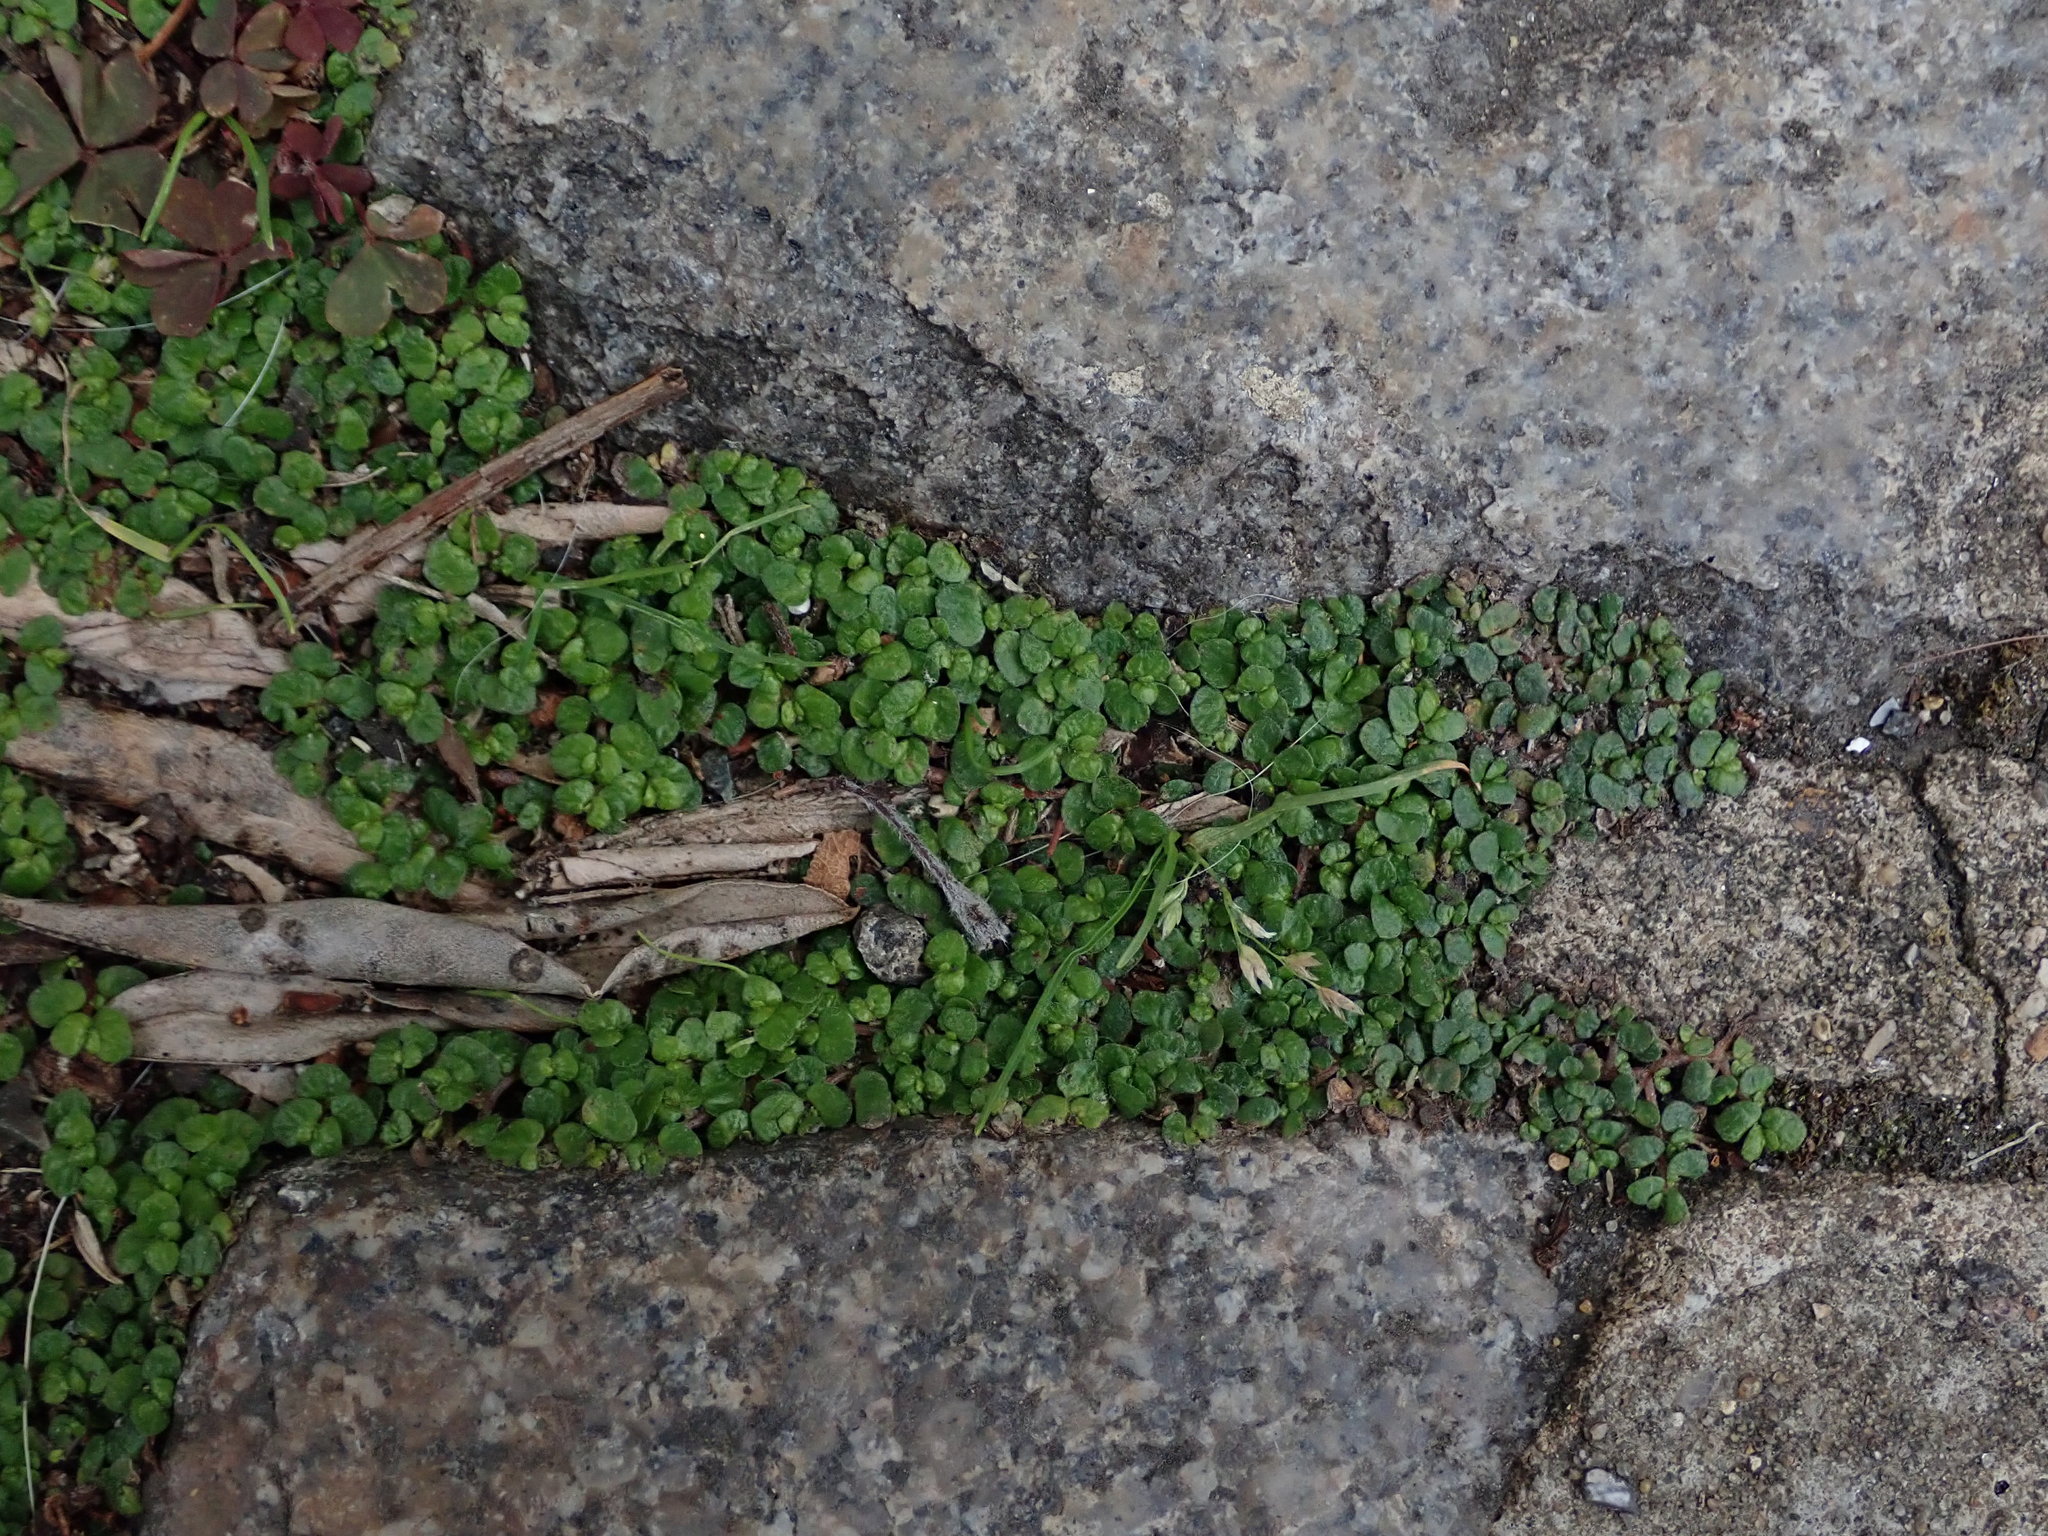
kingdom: Plantae
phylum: Tracheophyta
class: Magnoliopsida
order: Rosales
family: Urticaceae
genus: Soleirolia
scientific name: Soleirolia soleirolii
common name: Mind-your-own-business
